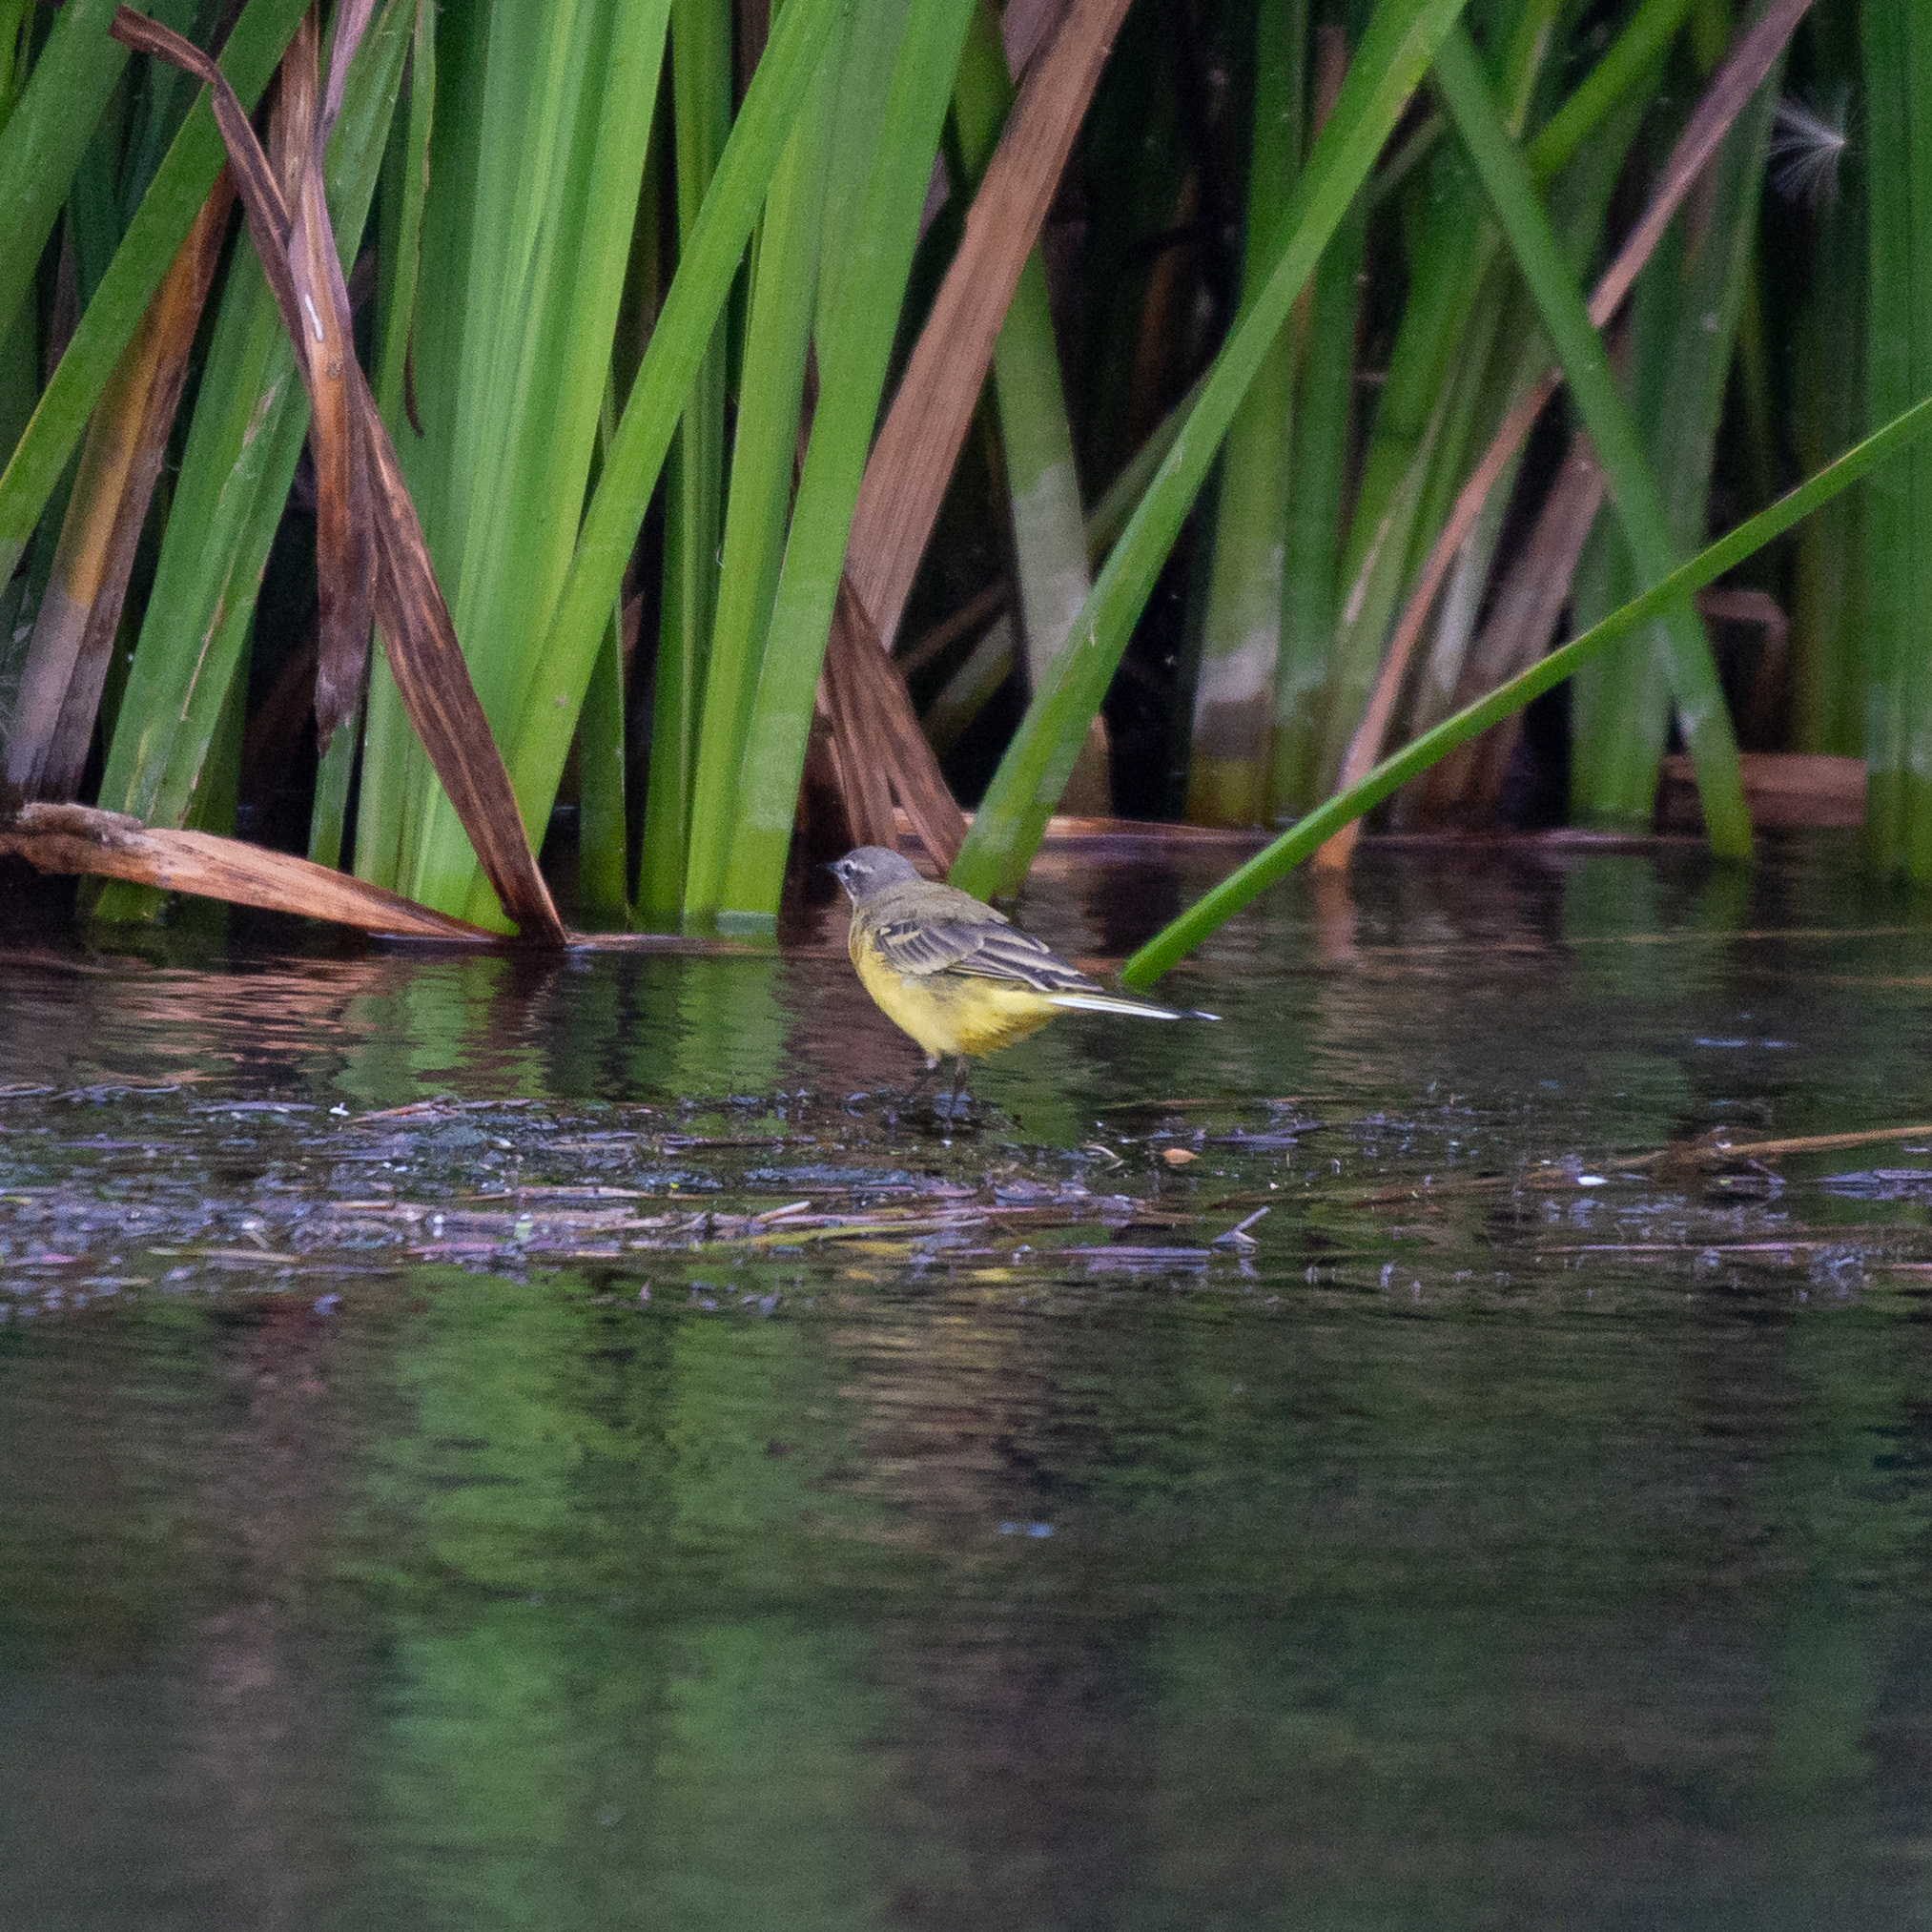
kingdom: Animalia
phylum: Chordata
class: Aves
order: Passeriformes
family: Motacillidae
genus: Motacilla
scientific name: Motacilla flava
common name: Western yellow wagtail
